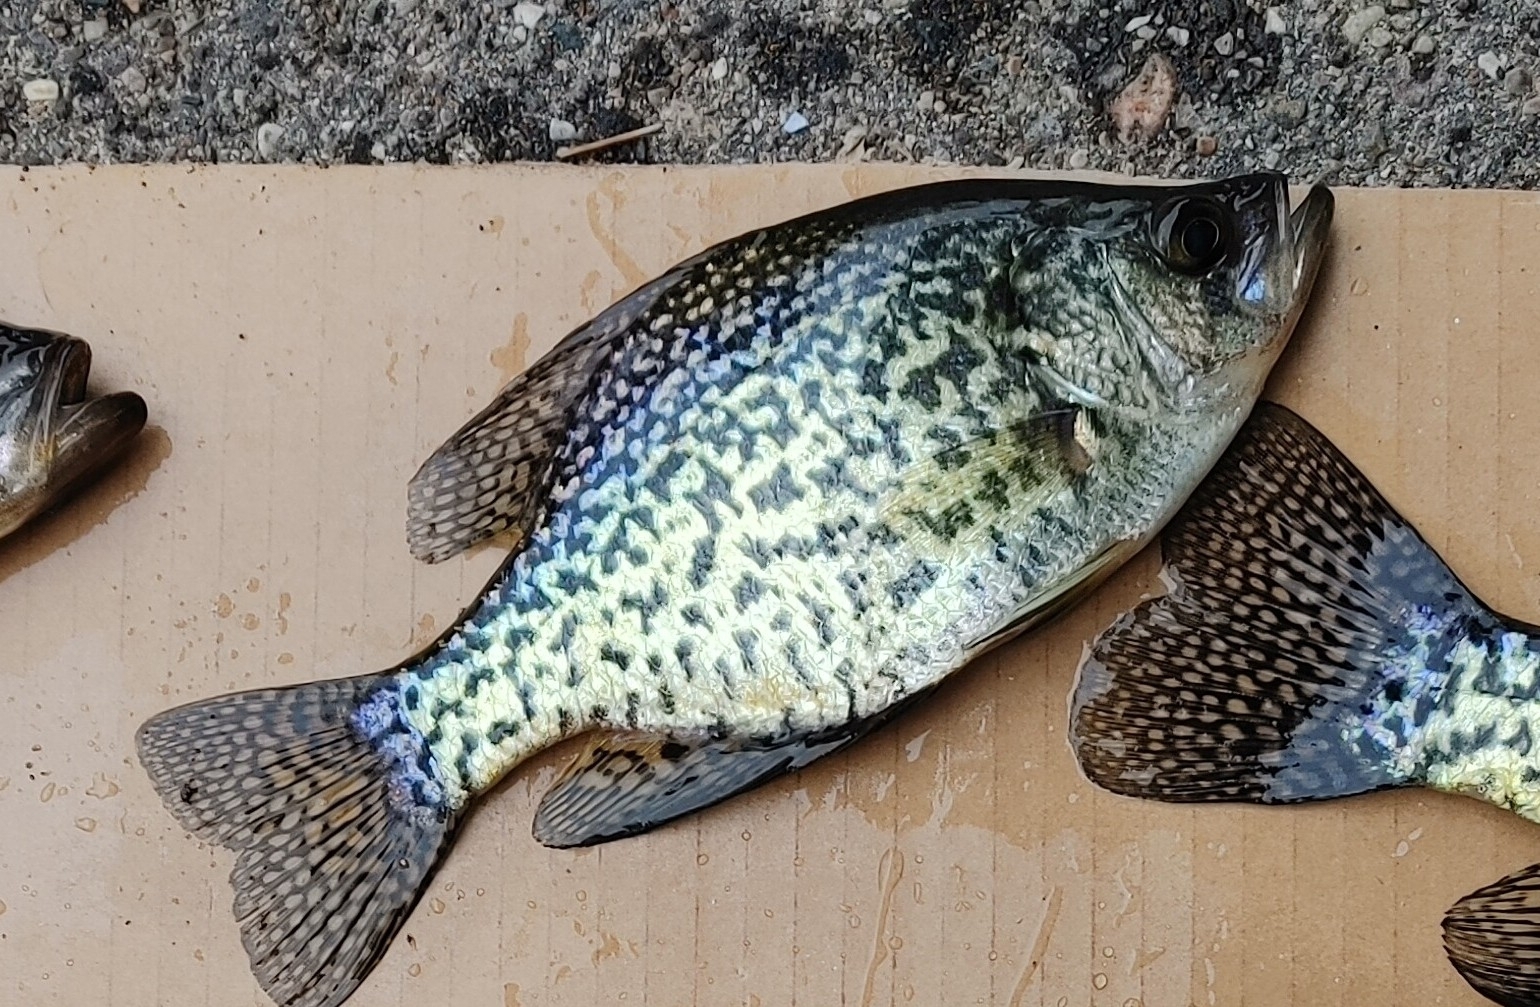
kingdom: Animalia
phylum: Chordata
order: Perciformes
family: Centrarchidae
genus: Pomoxis
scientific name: Pomoxis nigromaculatus
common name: Black crappie
